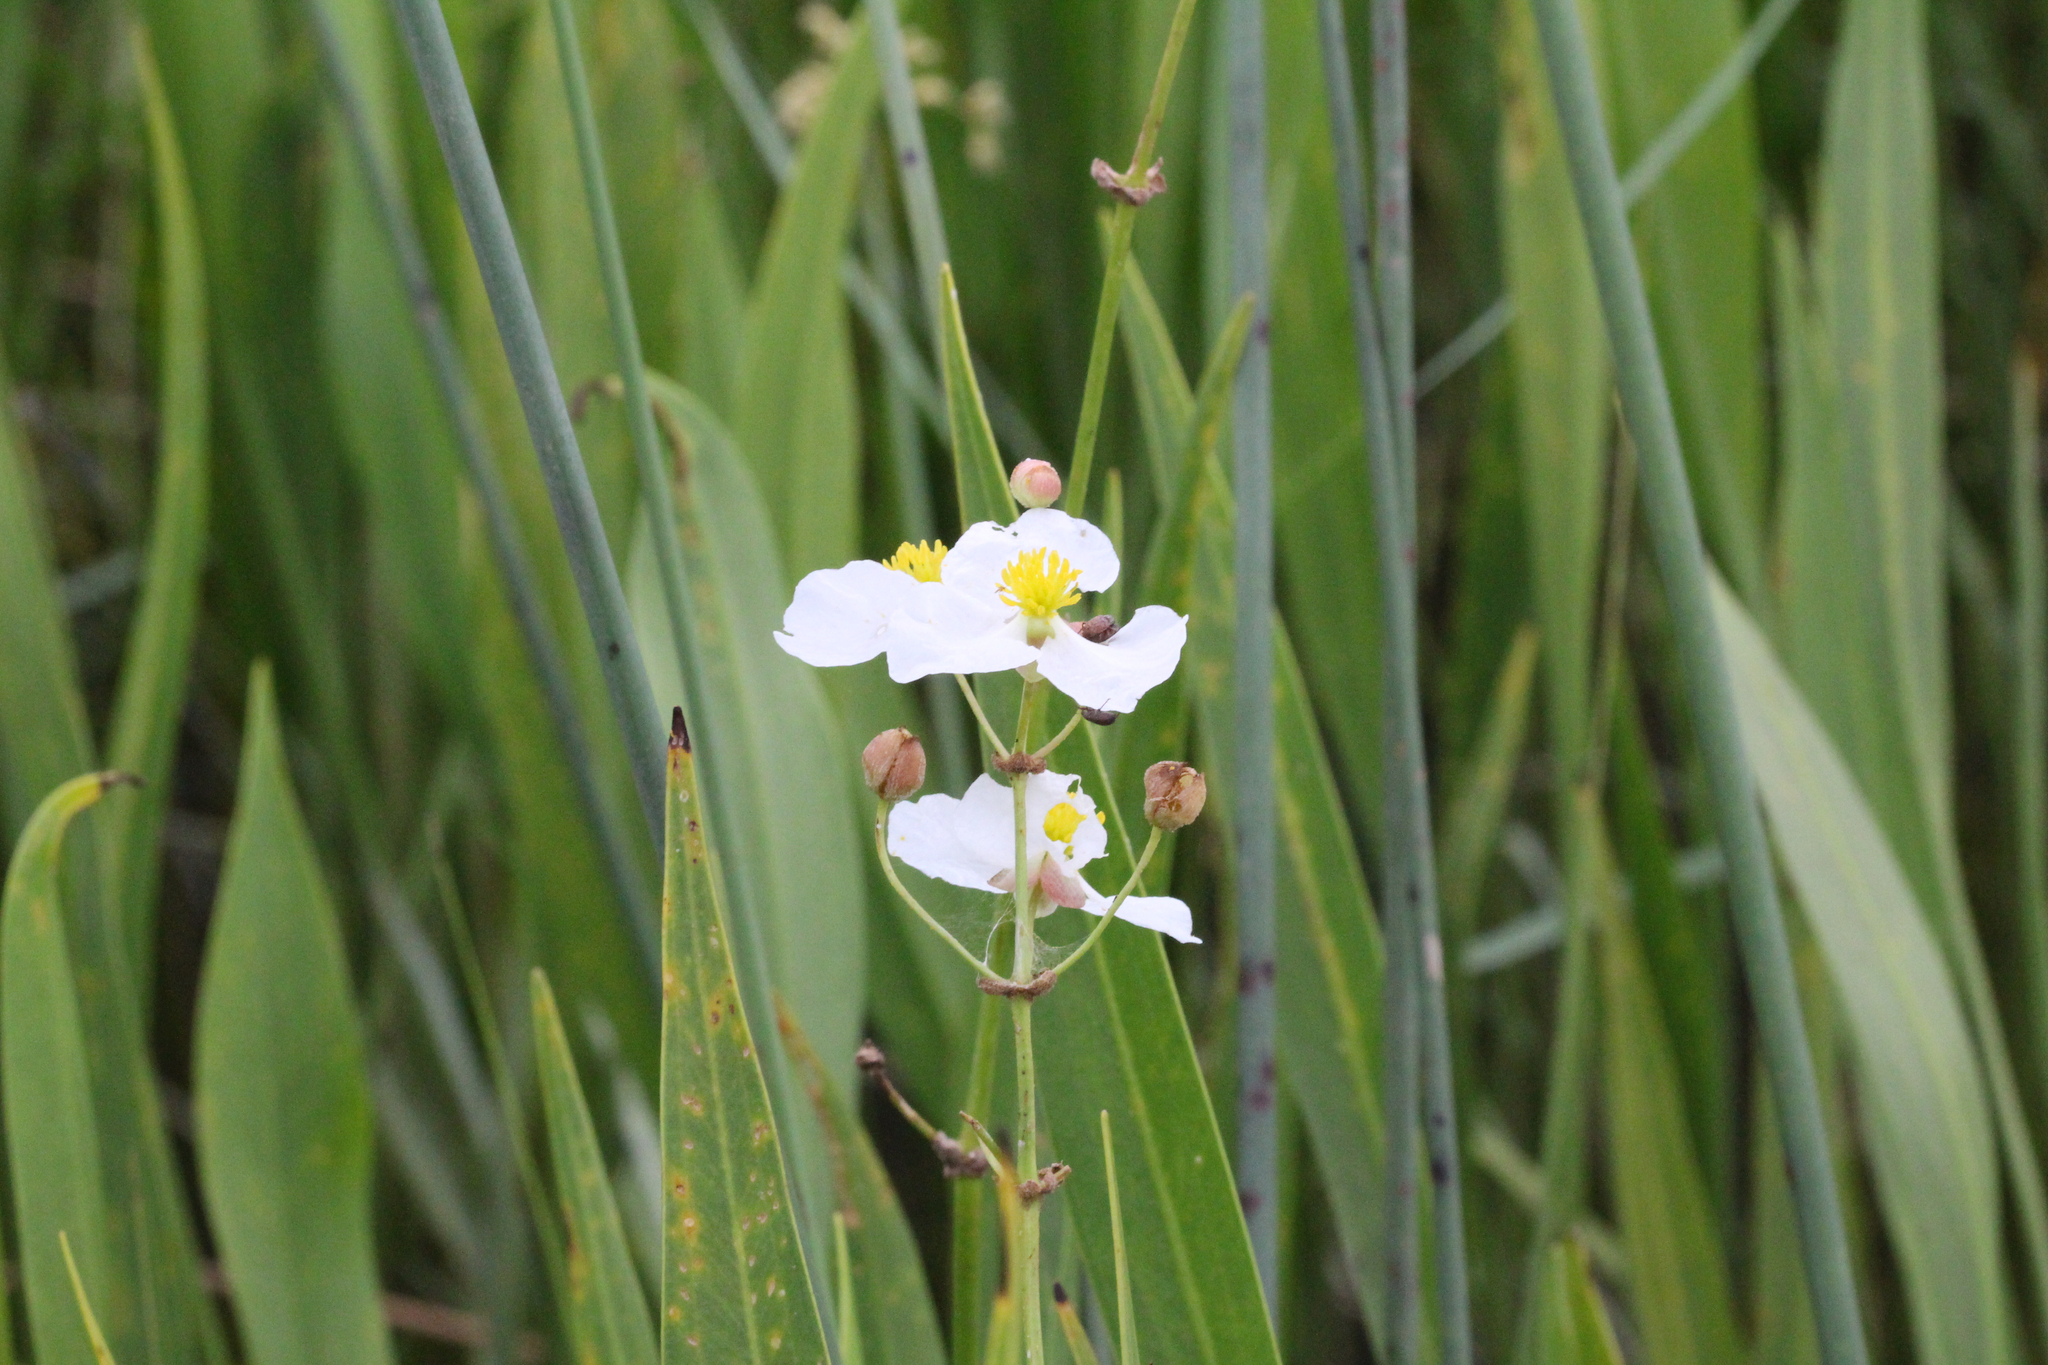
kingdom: Plantae
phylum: Tracheophyta
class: Liliopsida
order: Alismatales
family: Alismataceae
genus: Sagittaria
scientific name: Sagittaria lancifolia
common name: Lance-leaf arrowhead
